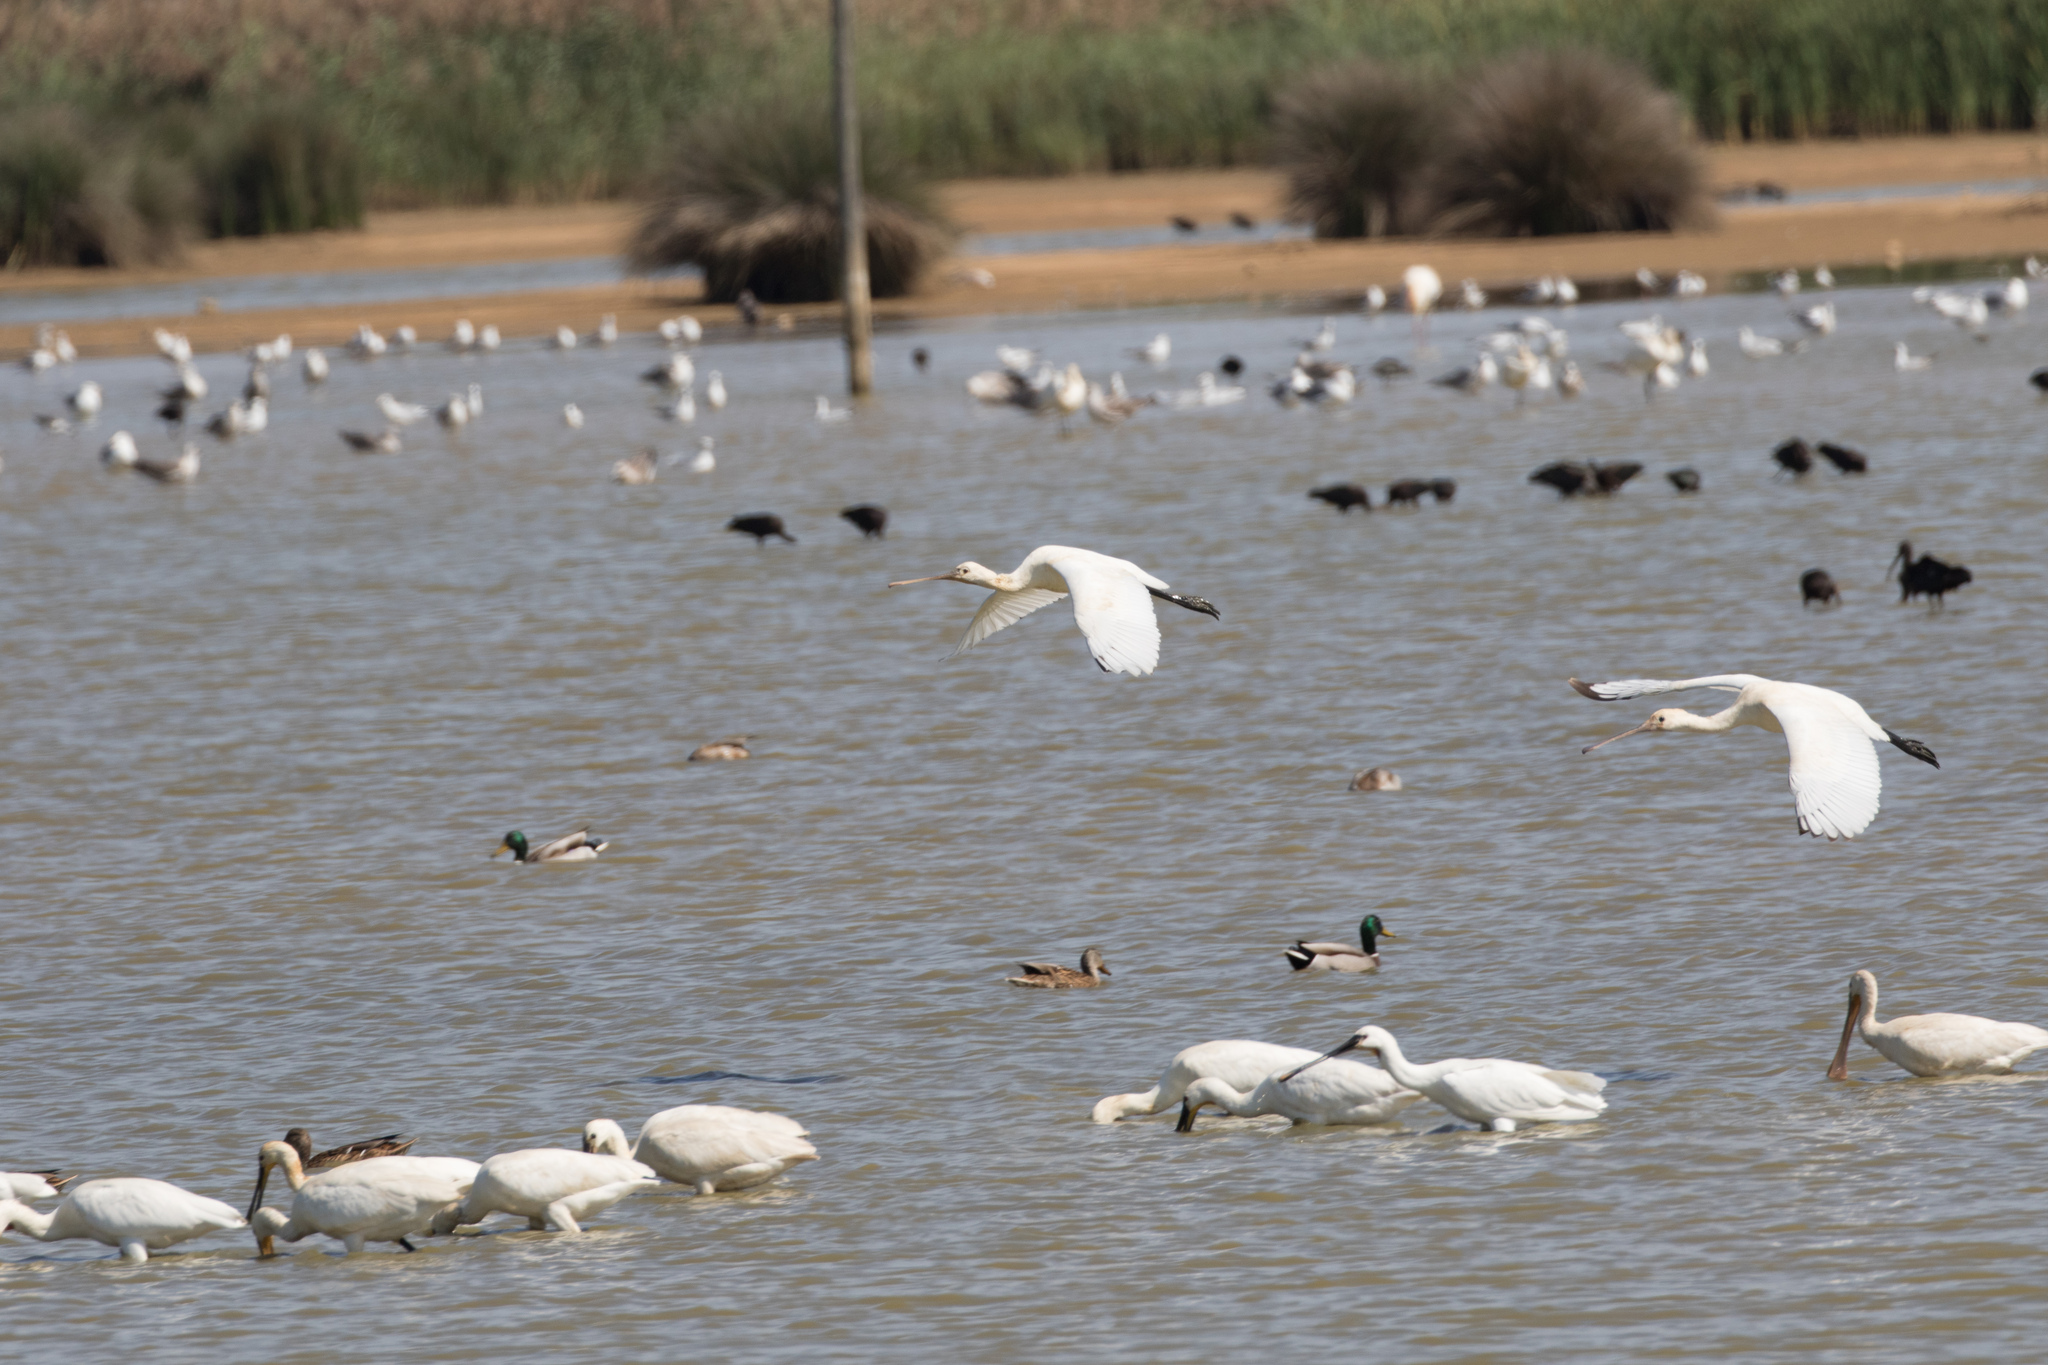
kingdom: Animalia
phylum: Chordata
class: Aves
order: Pelecaniformes
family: Threskiornithidae
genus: Platalea
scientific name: Platalea leucorodia
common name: Eurasian spoonbill
